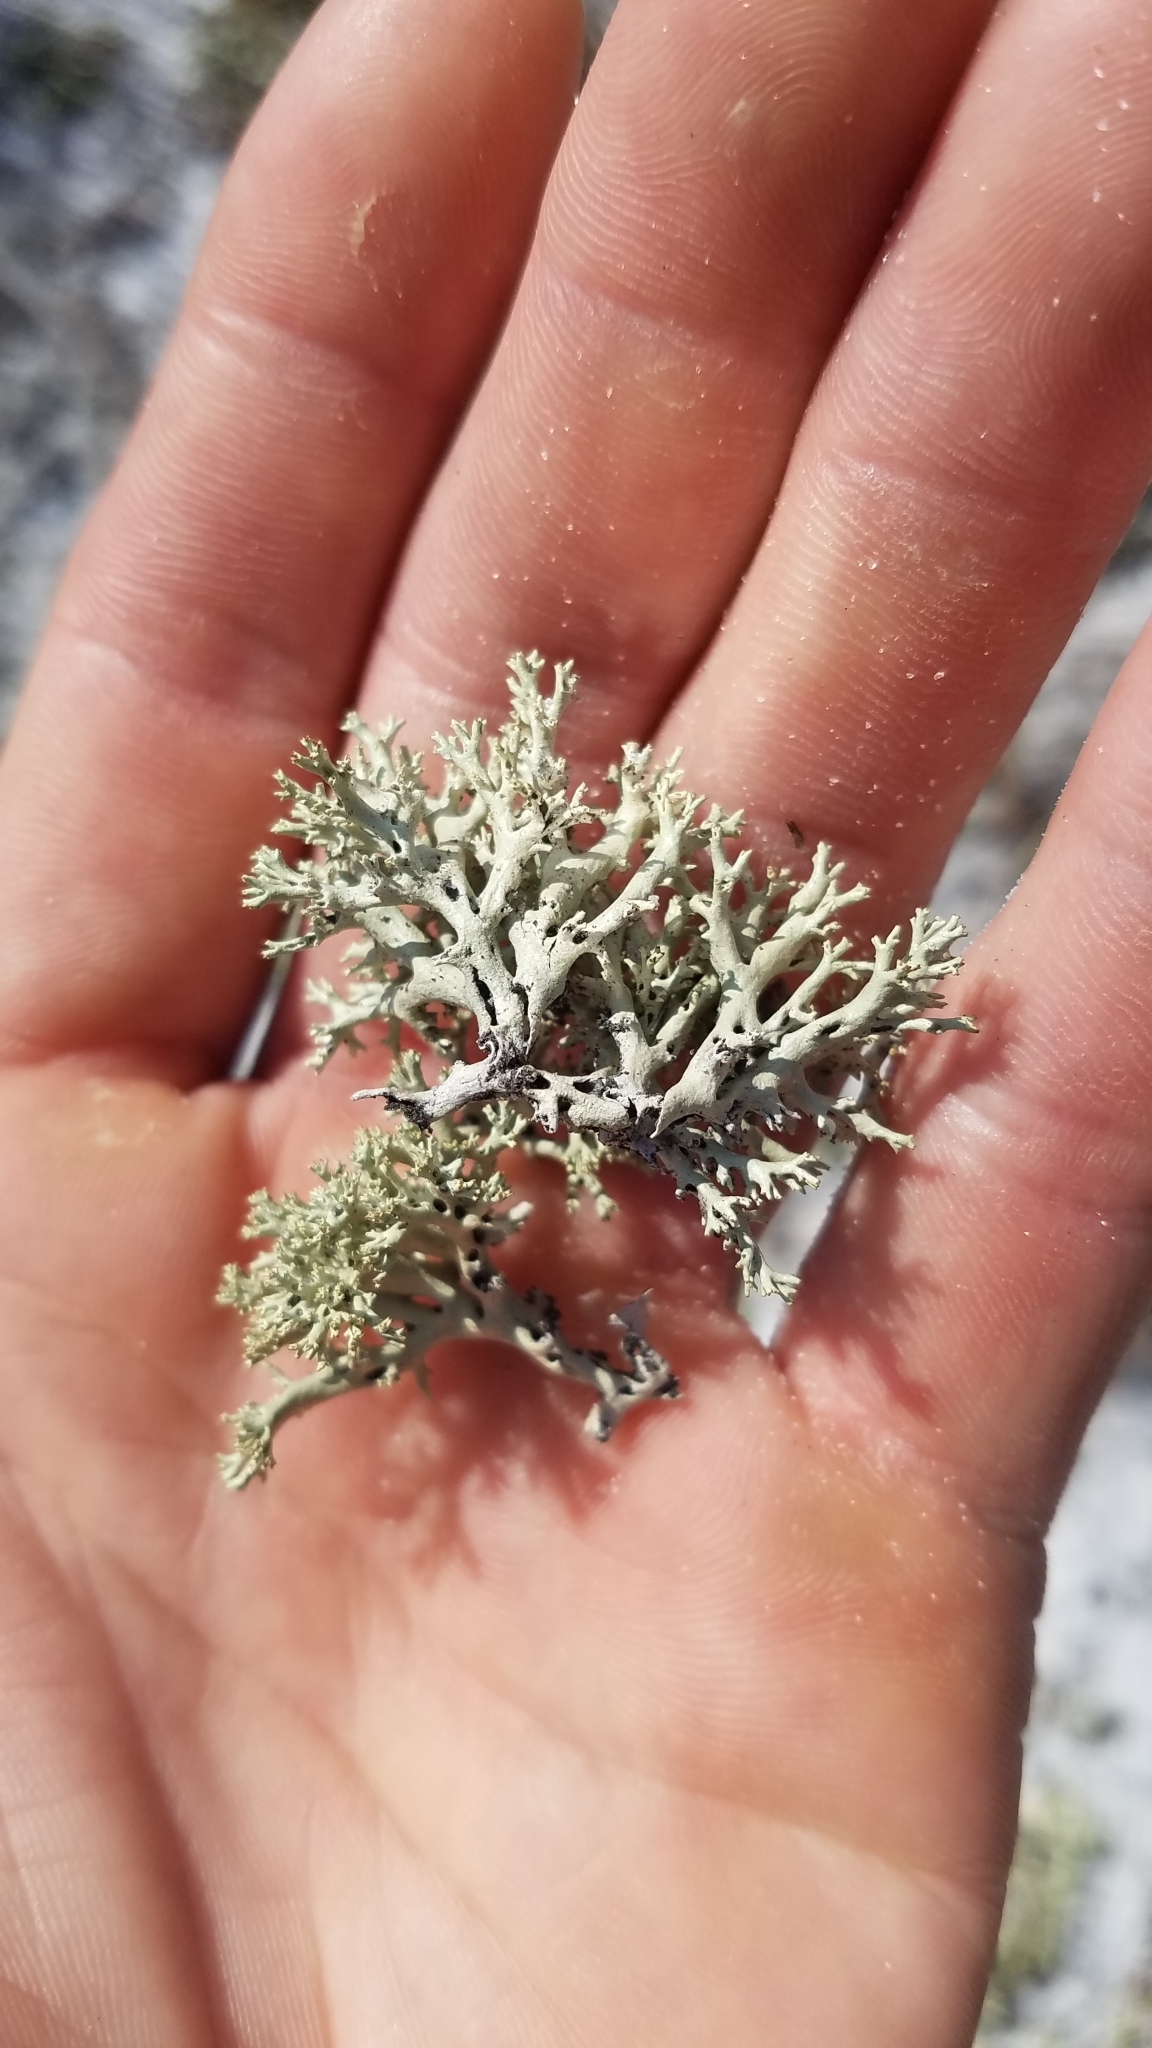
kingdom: Fungi
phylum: Ascomycota
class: Lecanoromycetes
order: Lecanorales
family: Cladoniaceae
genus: Cladonia
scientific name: Cladonia perforata
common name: Florida perforate reindeer lichen
